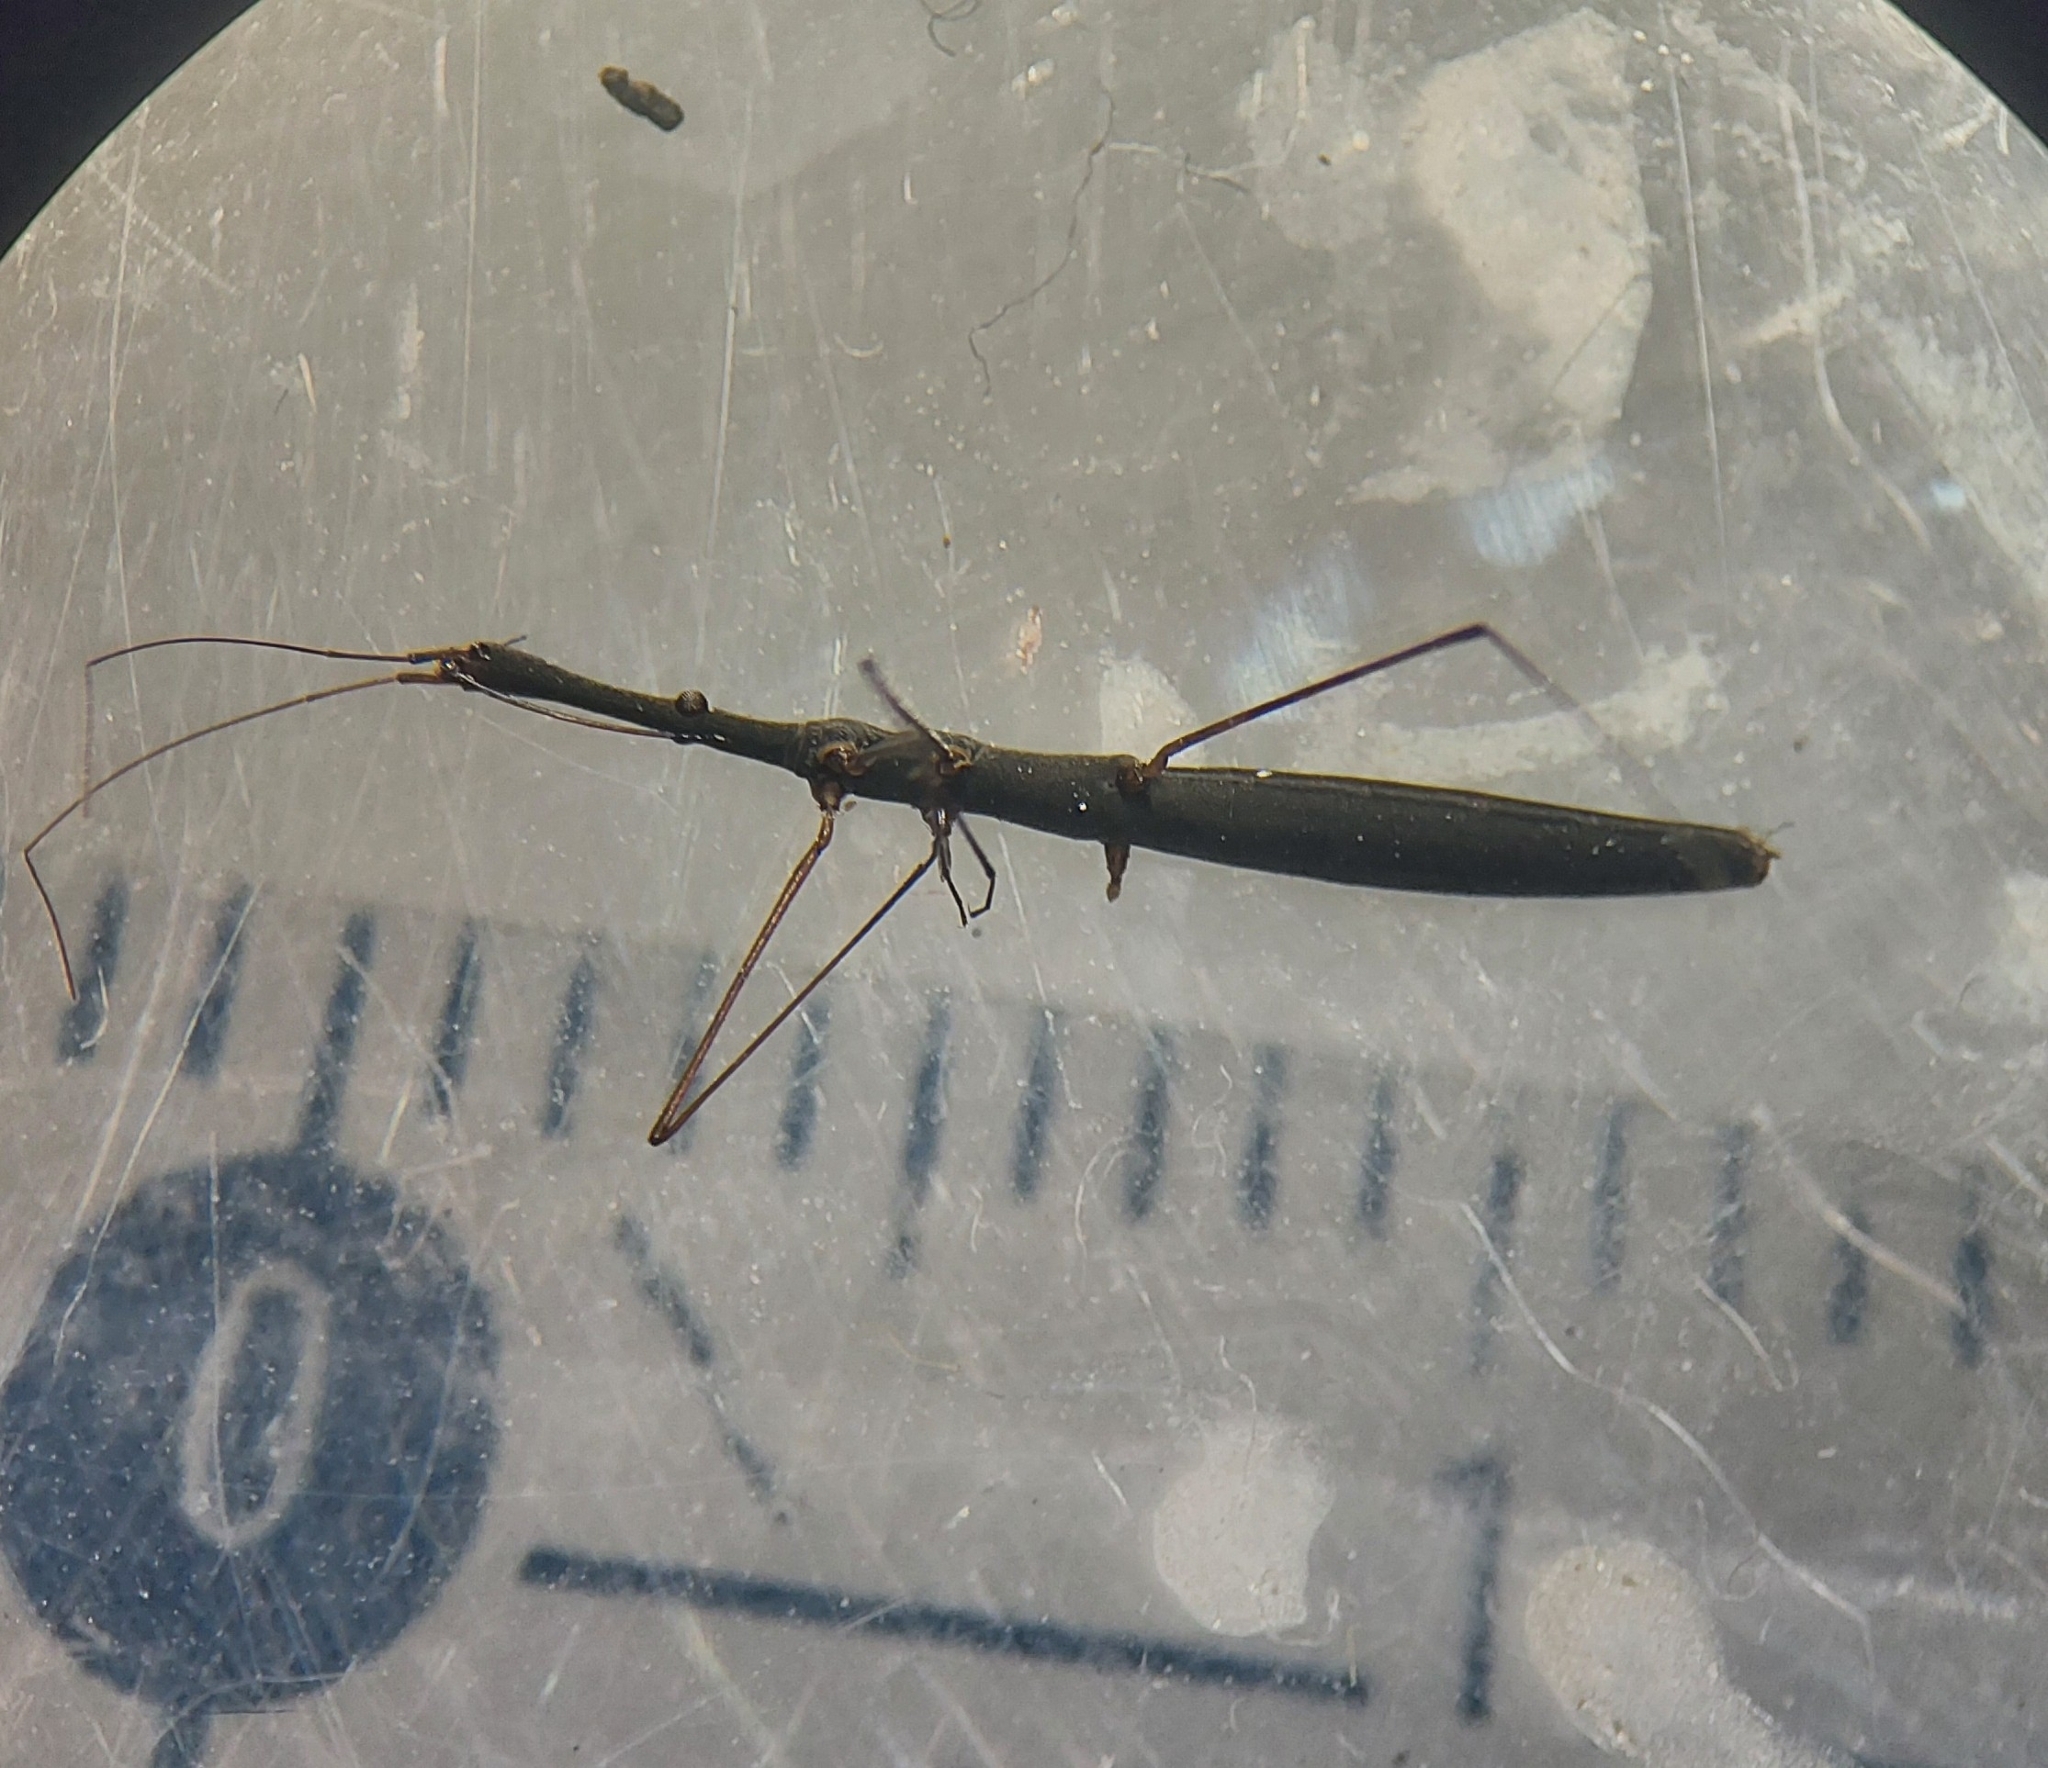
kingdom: Animalia
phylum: Arthropoda
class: Insecta
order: Hemiptera
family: Hydrometridae
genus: Hydrometra
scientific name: Hydrometra stagnorum
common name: Water measurer
